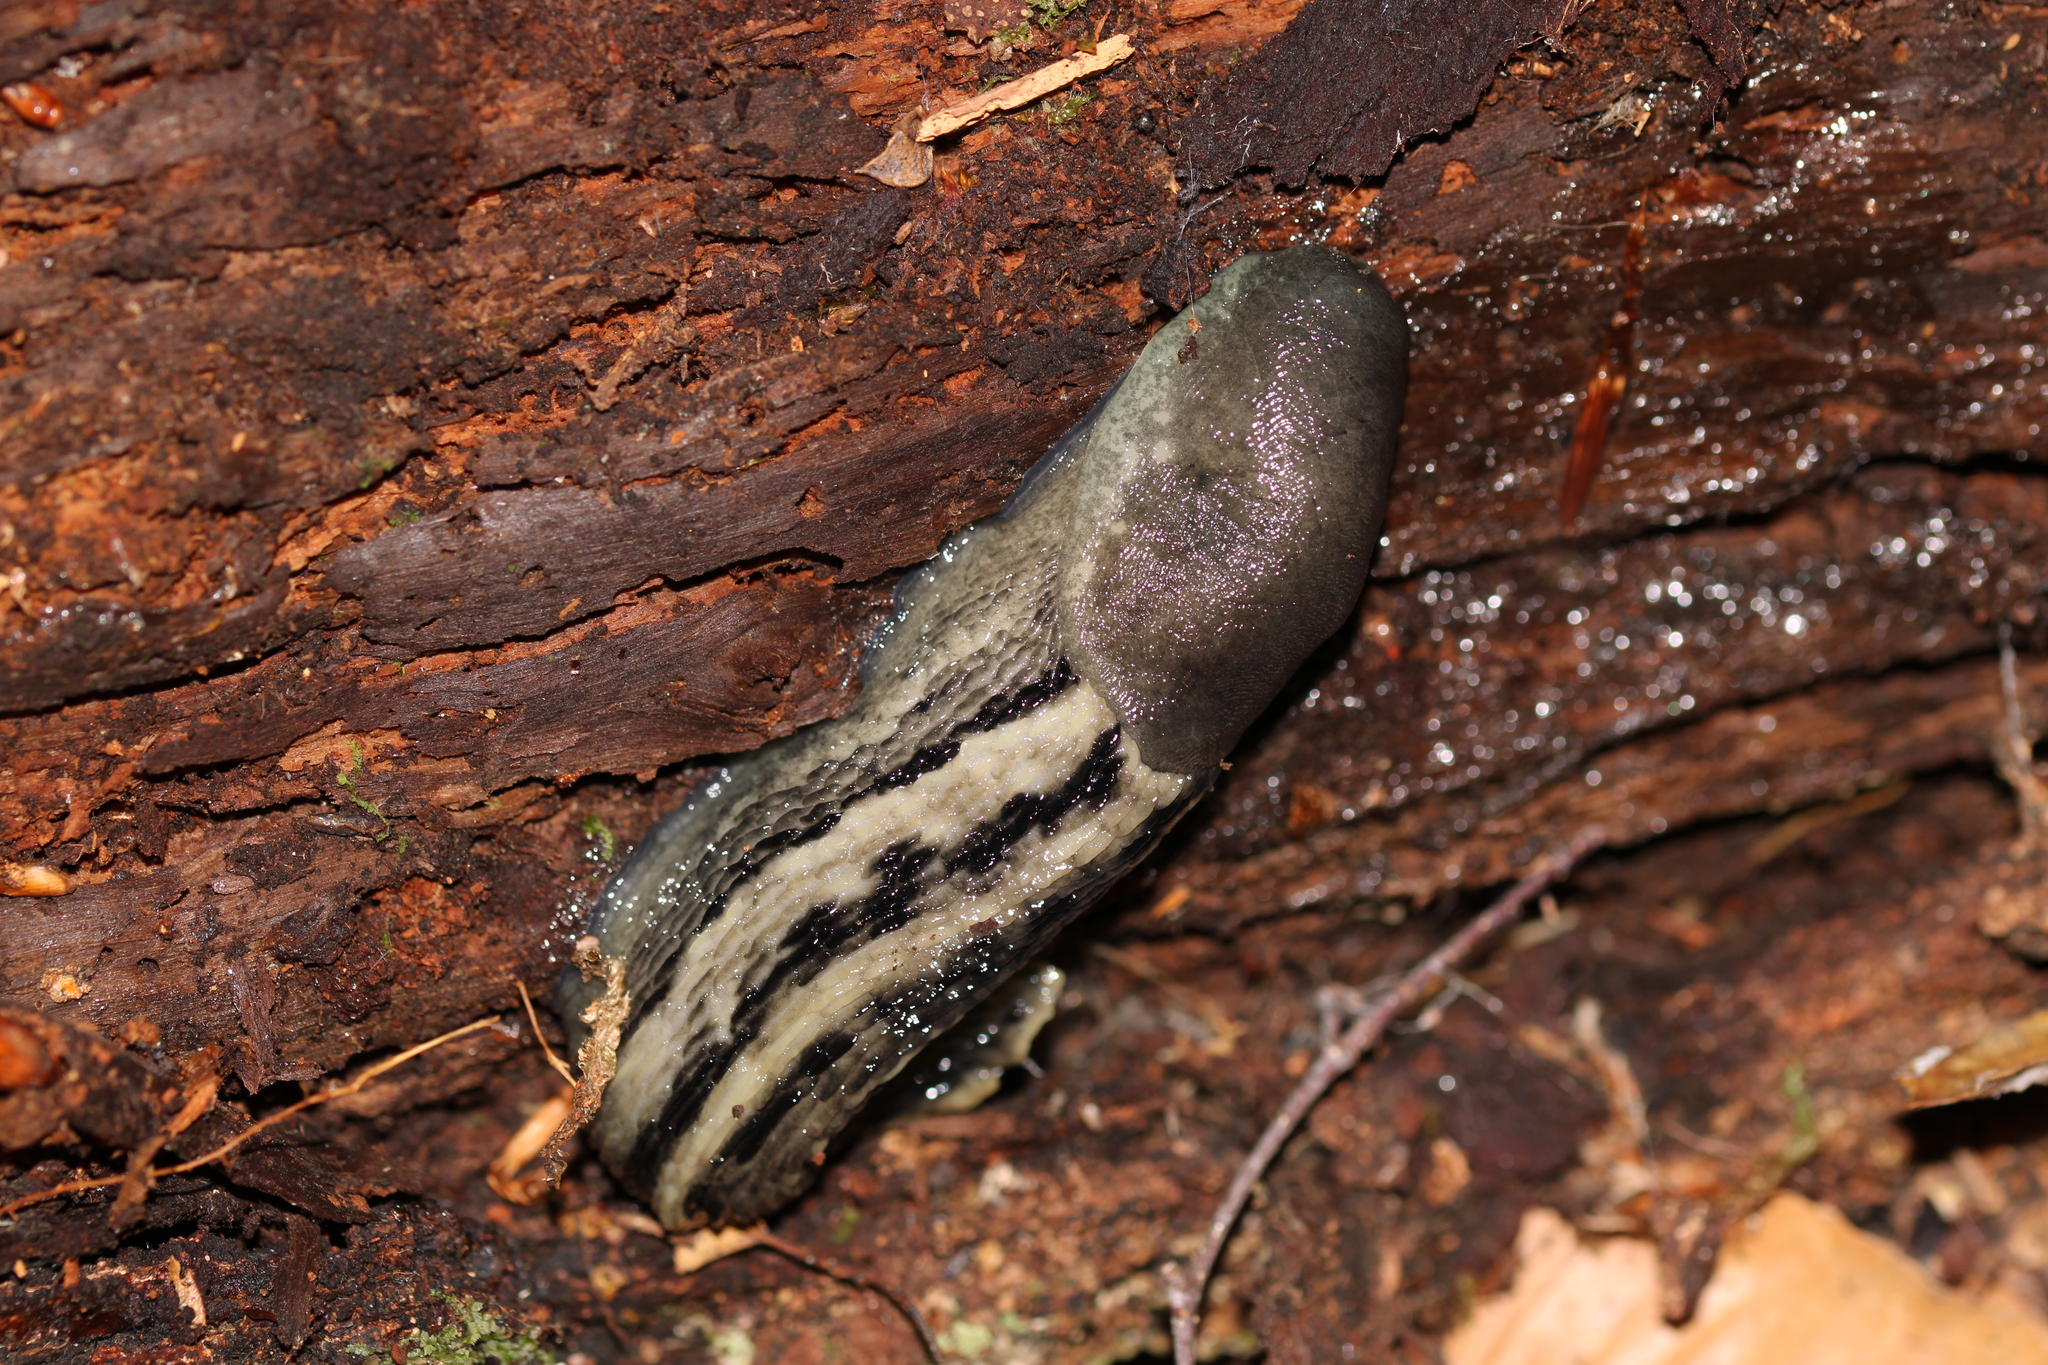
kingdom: Animalia
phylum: Mollusca
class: Gastropoda
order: Stylommatophora
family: Limacidae
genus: Limax
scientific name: Limax cinereoniger
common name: Ash-black slug
